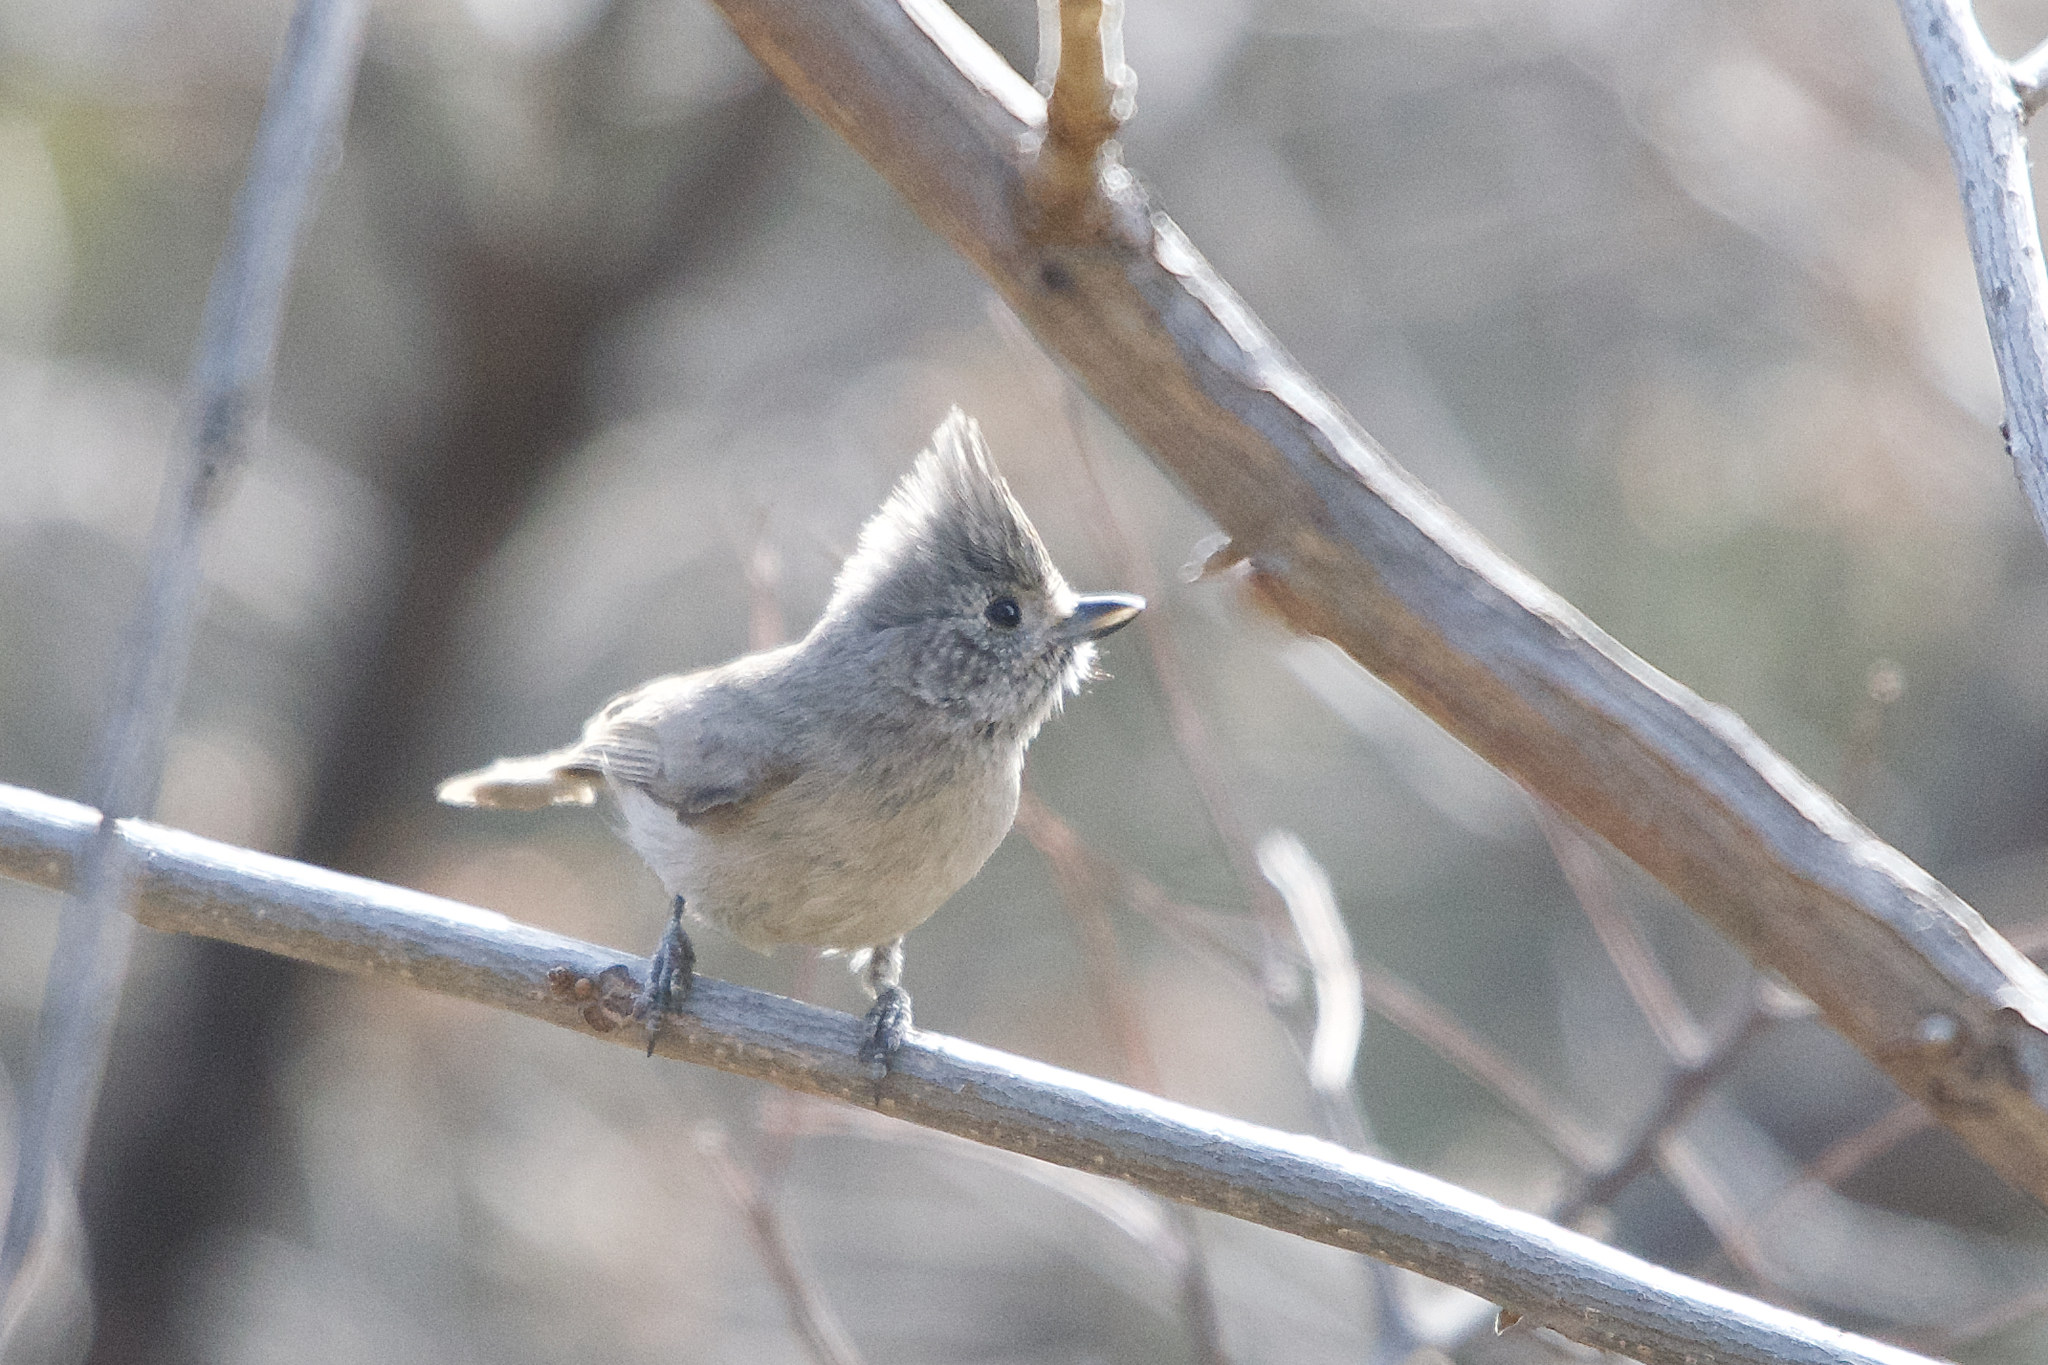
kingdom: Animalia
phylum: Chordata
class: Aves
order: Passeriformes
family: Paridae
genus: Baeolophus
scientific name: Baeolophus ridgwayi
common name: Juniper titmouse
